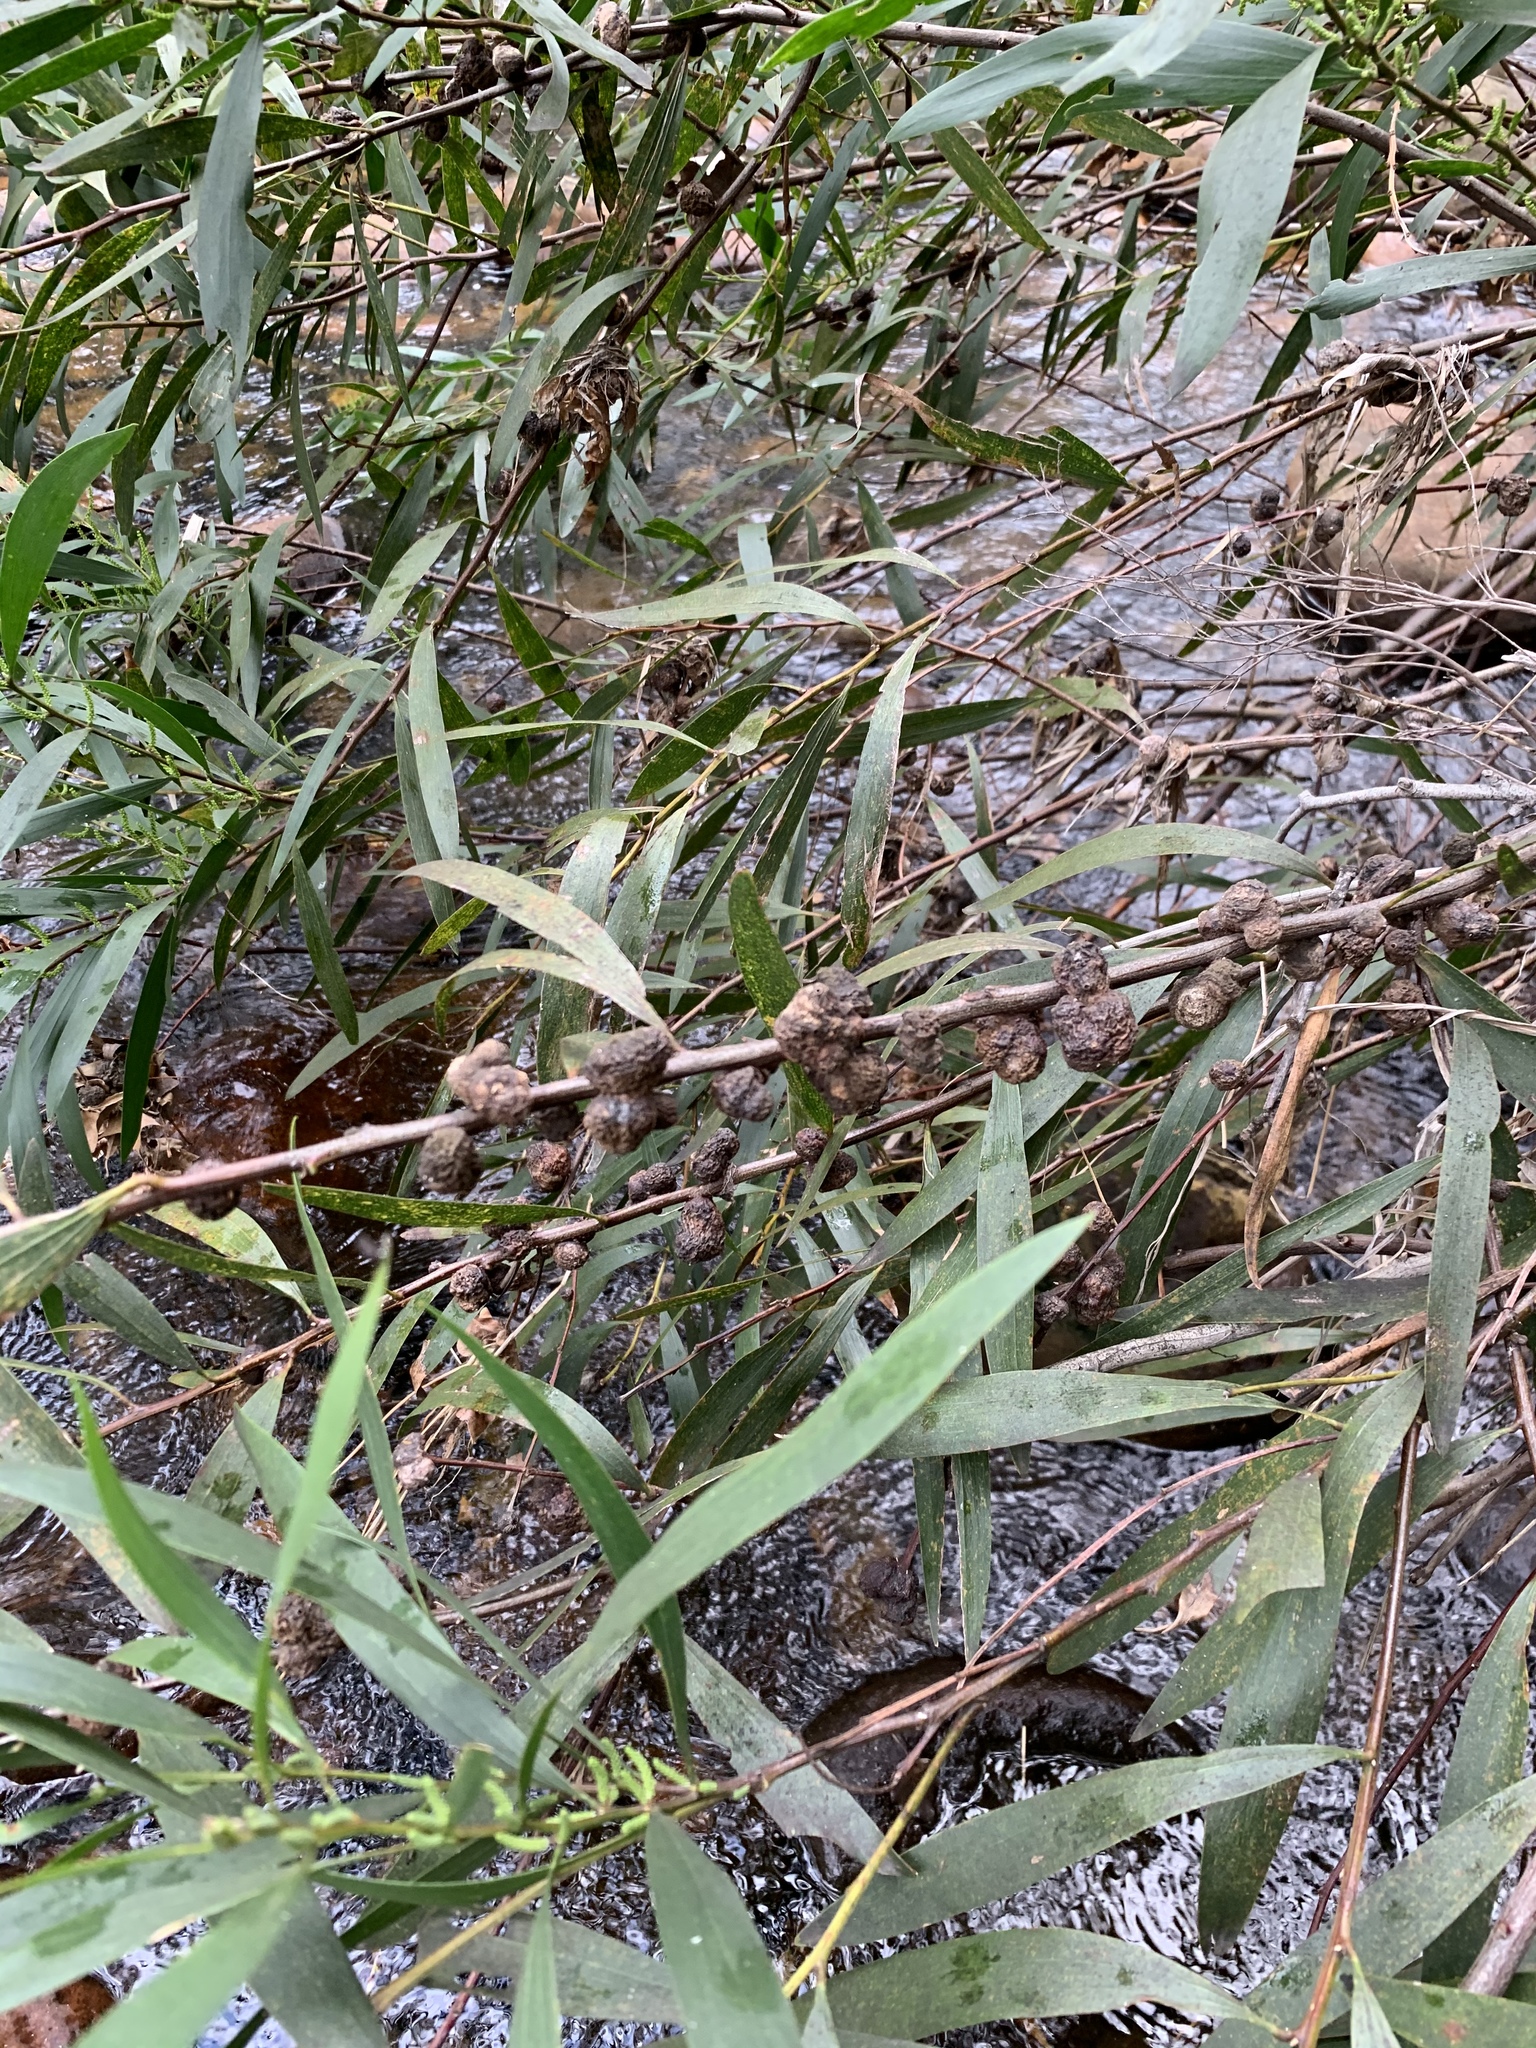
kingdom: Plantae
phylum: Tracheophyta
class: Magnoliopsida
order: Fabales
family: Fabaceae
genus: Acacia
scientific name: Acacia longifolia
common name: Sydney golden wattle
